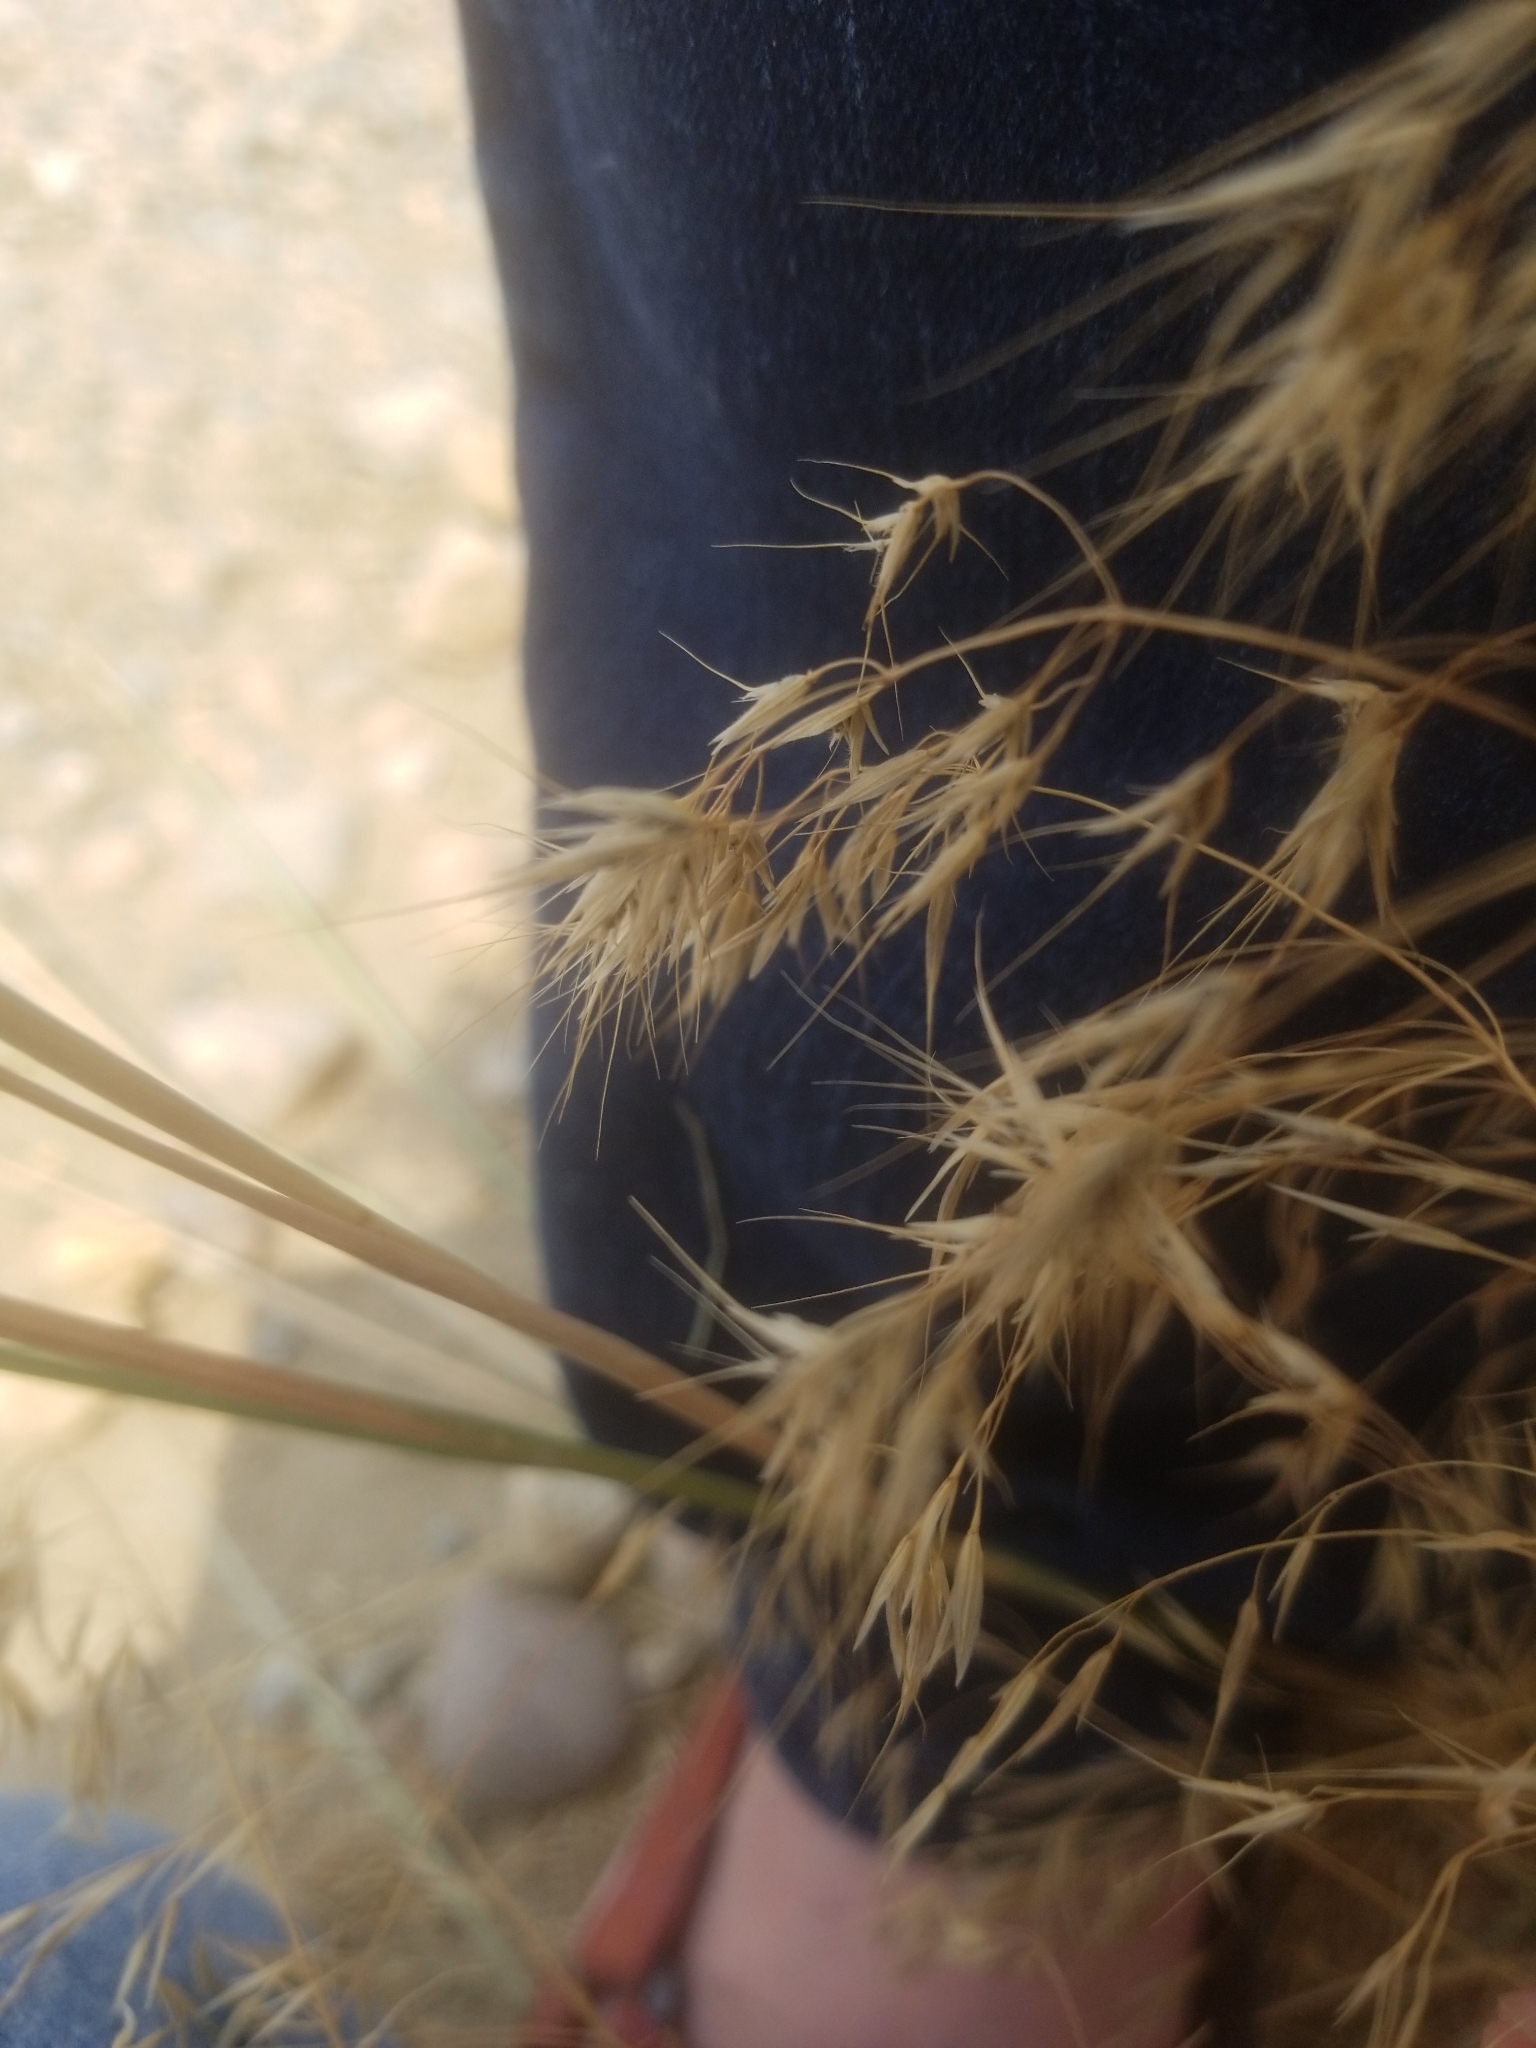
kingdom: Plantae
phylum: Tracheophyta
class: Liliopsida
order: Poales
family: Poaceae
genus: Bromus
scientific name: Bromus tectorum
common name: Cheatgrass
